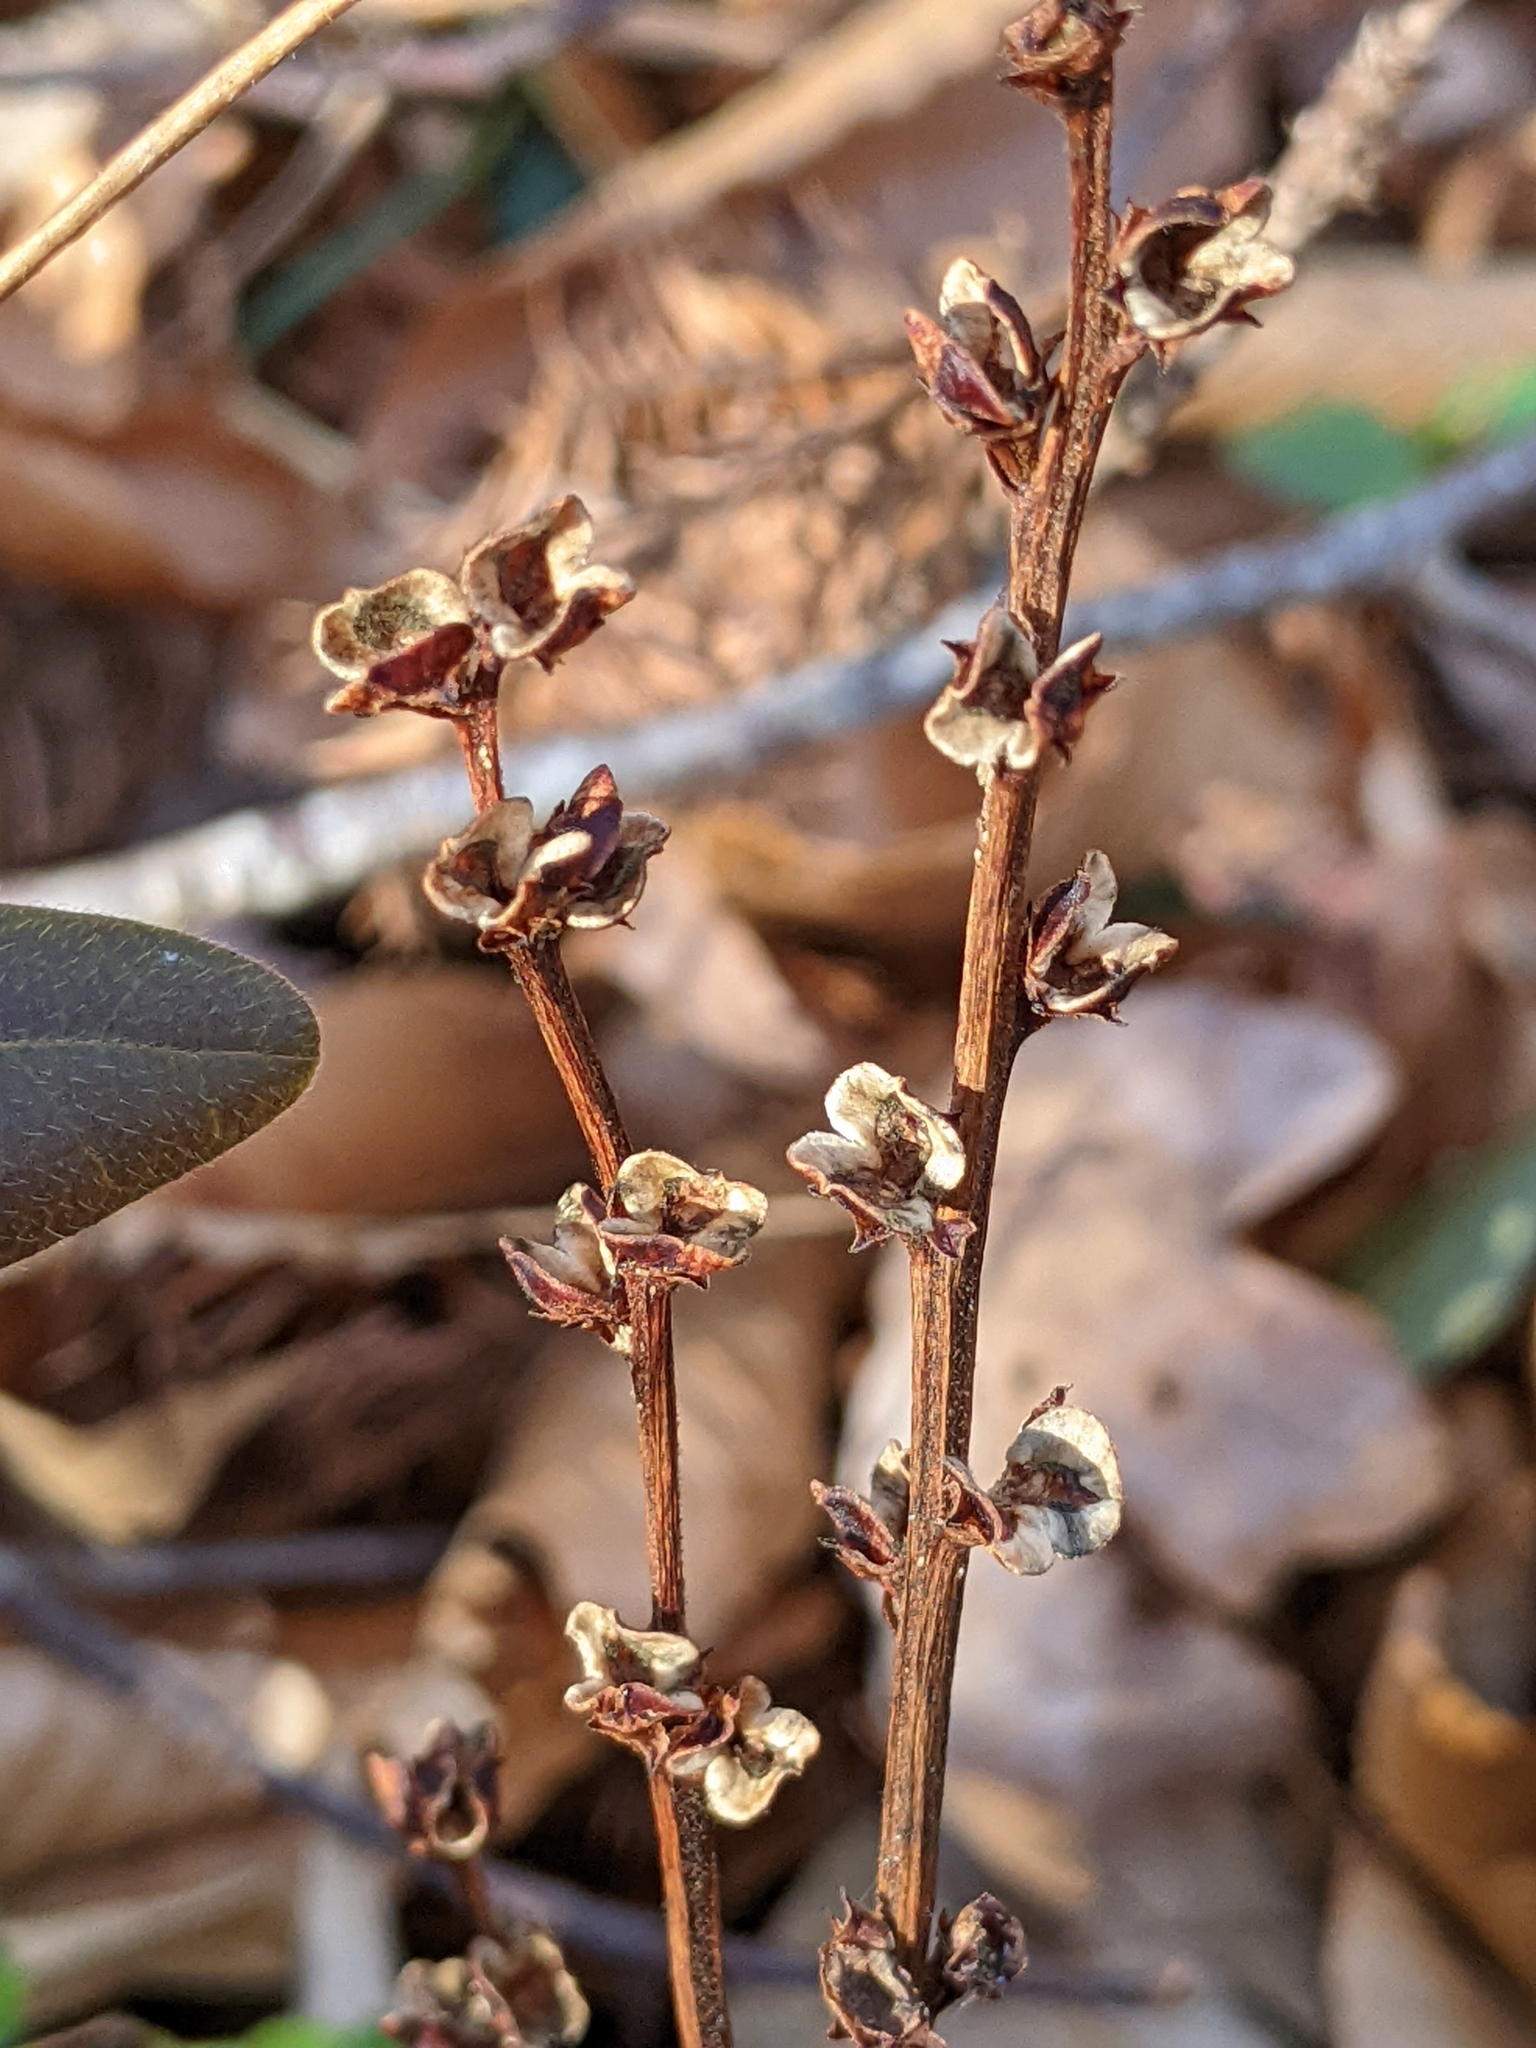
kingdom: Plantae
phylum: Tracheophyta
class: Magnoliopsida
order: Lamiales
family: Orobanchaceae
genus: Epifagus
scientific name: Epifagus virginiana
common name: Beechdrops
